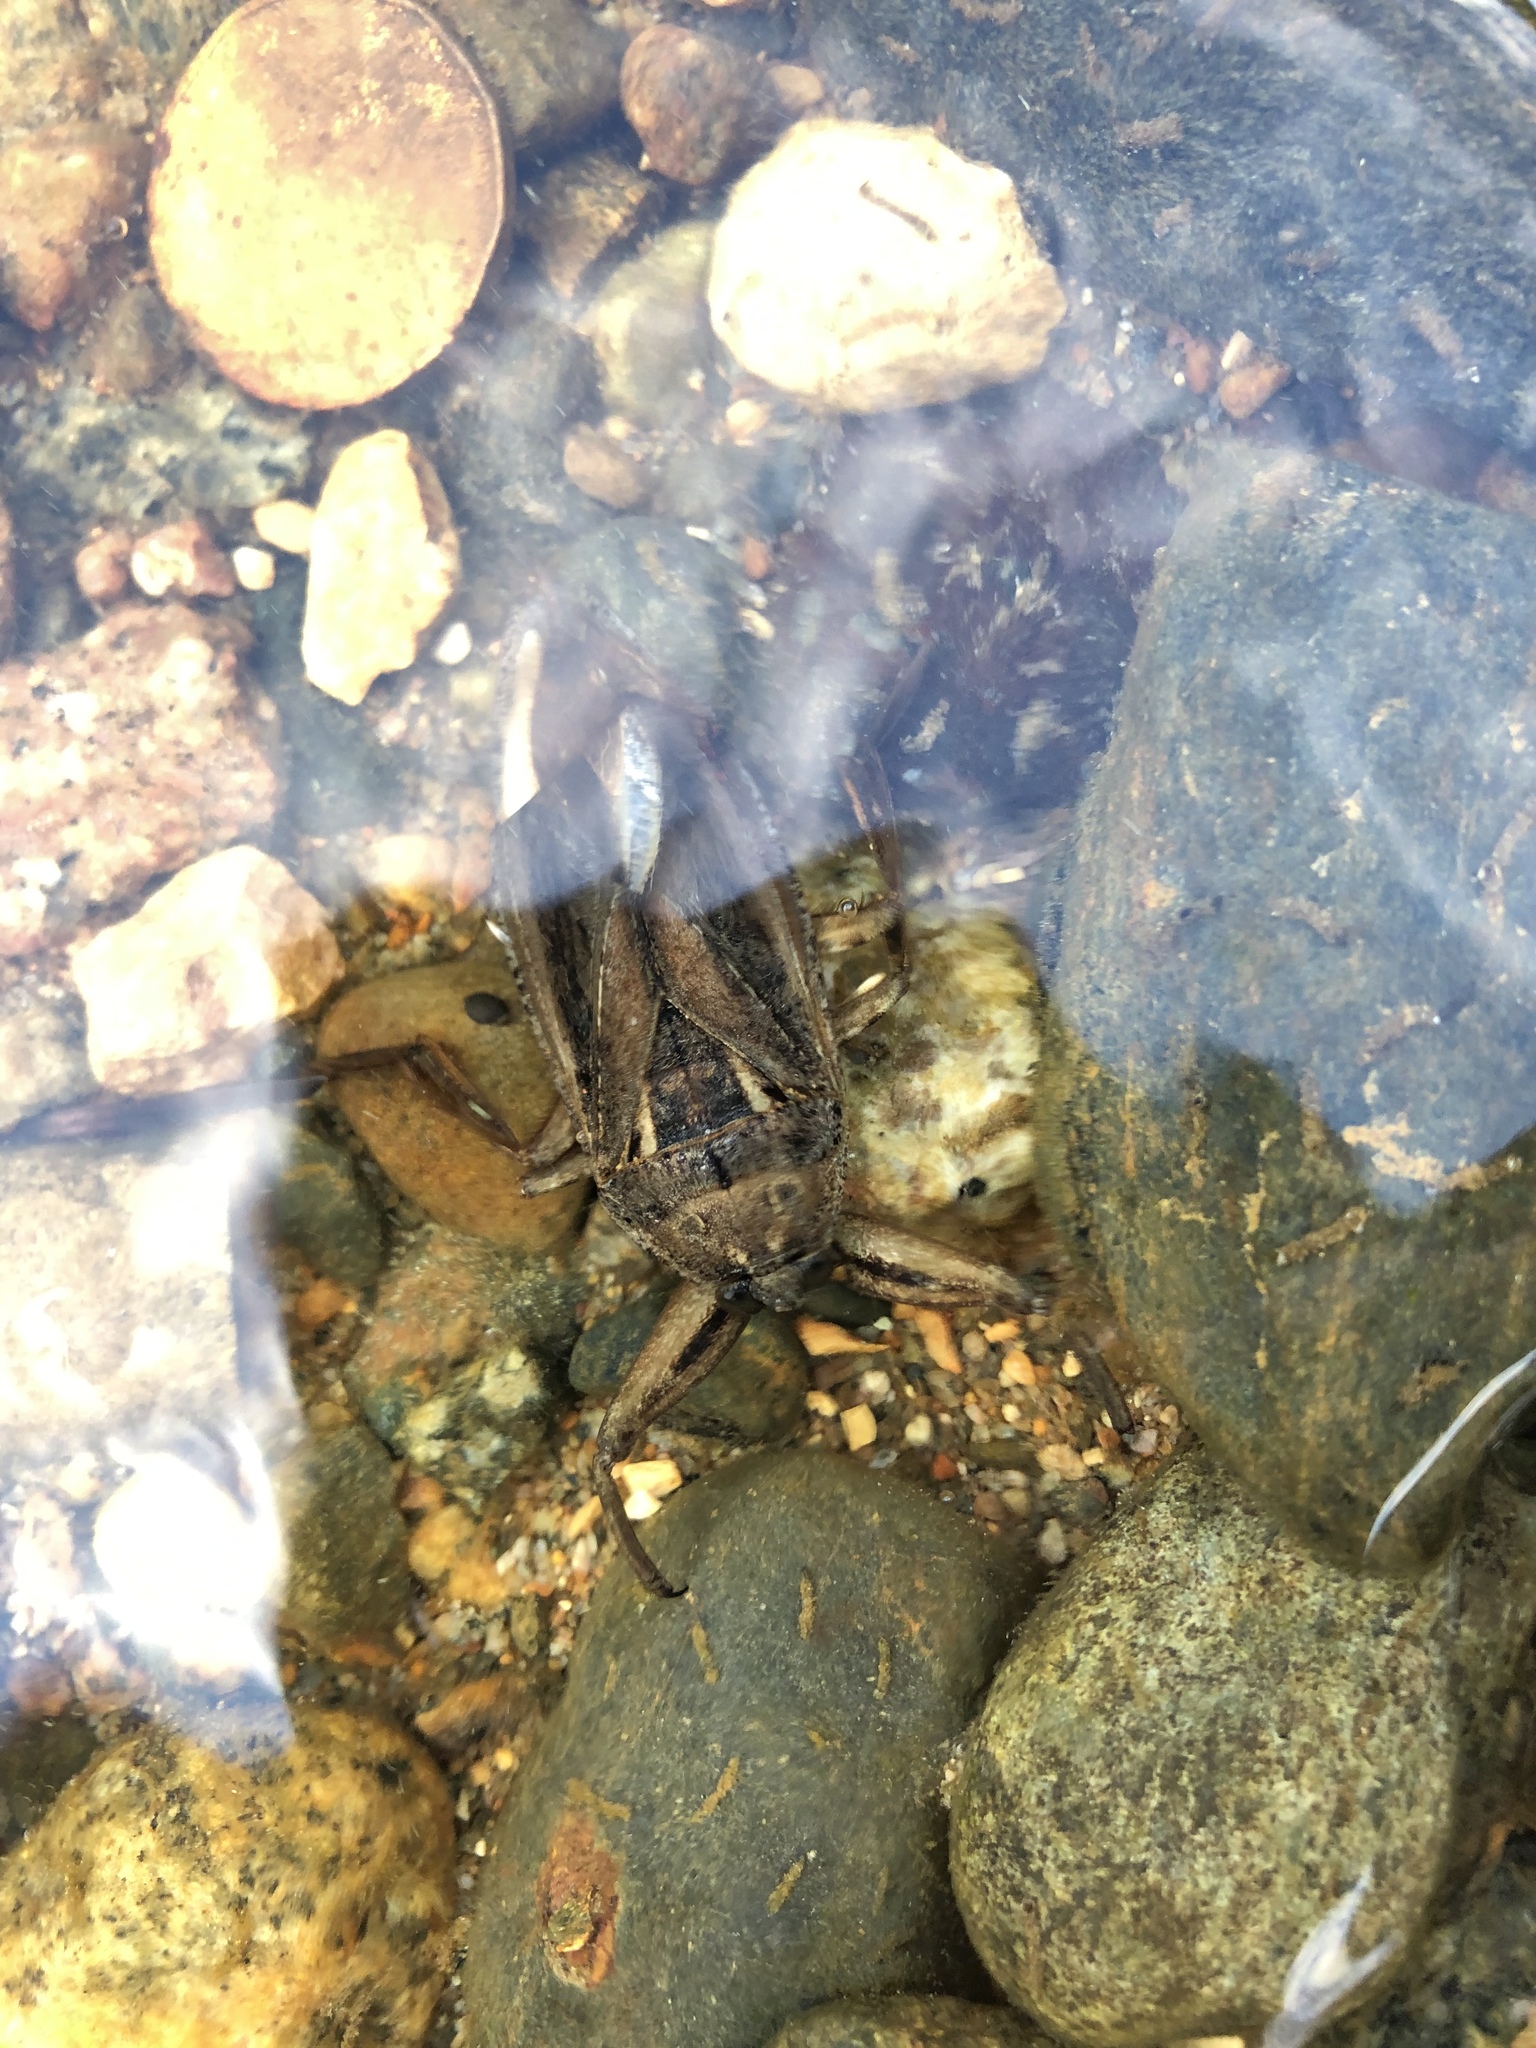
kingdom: Animalia
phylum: Arthropoda
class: Insecta
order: Hemiptera
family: Belostomatidae
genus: Lethocerus
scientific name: Lethocerus americanus
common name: Giant water bug
